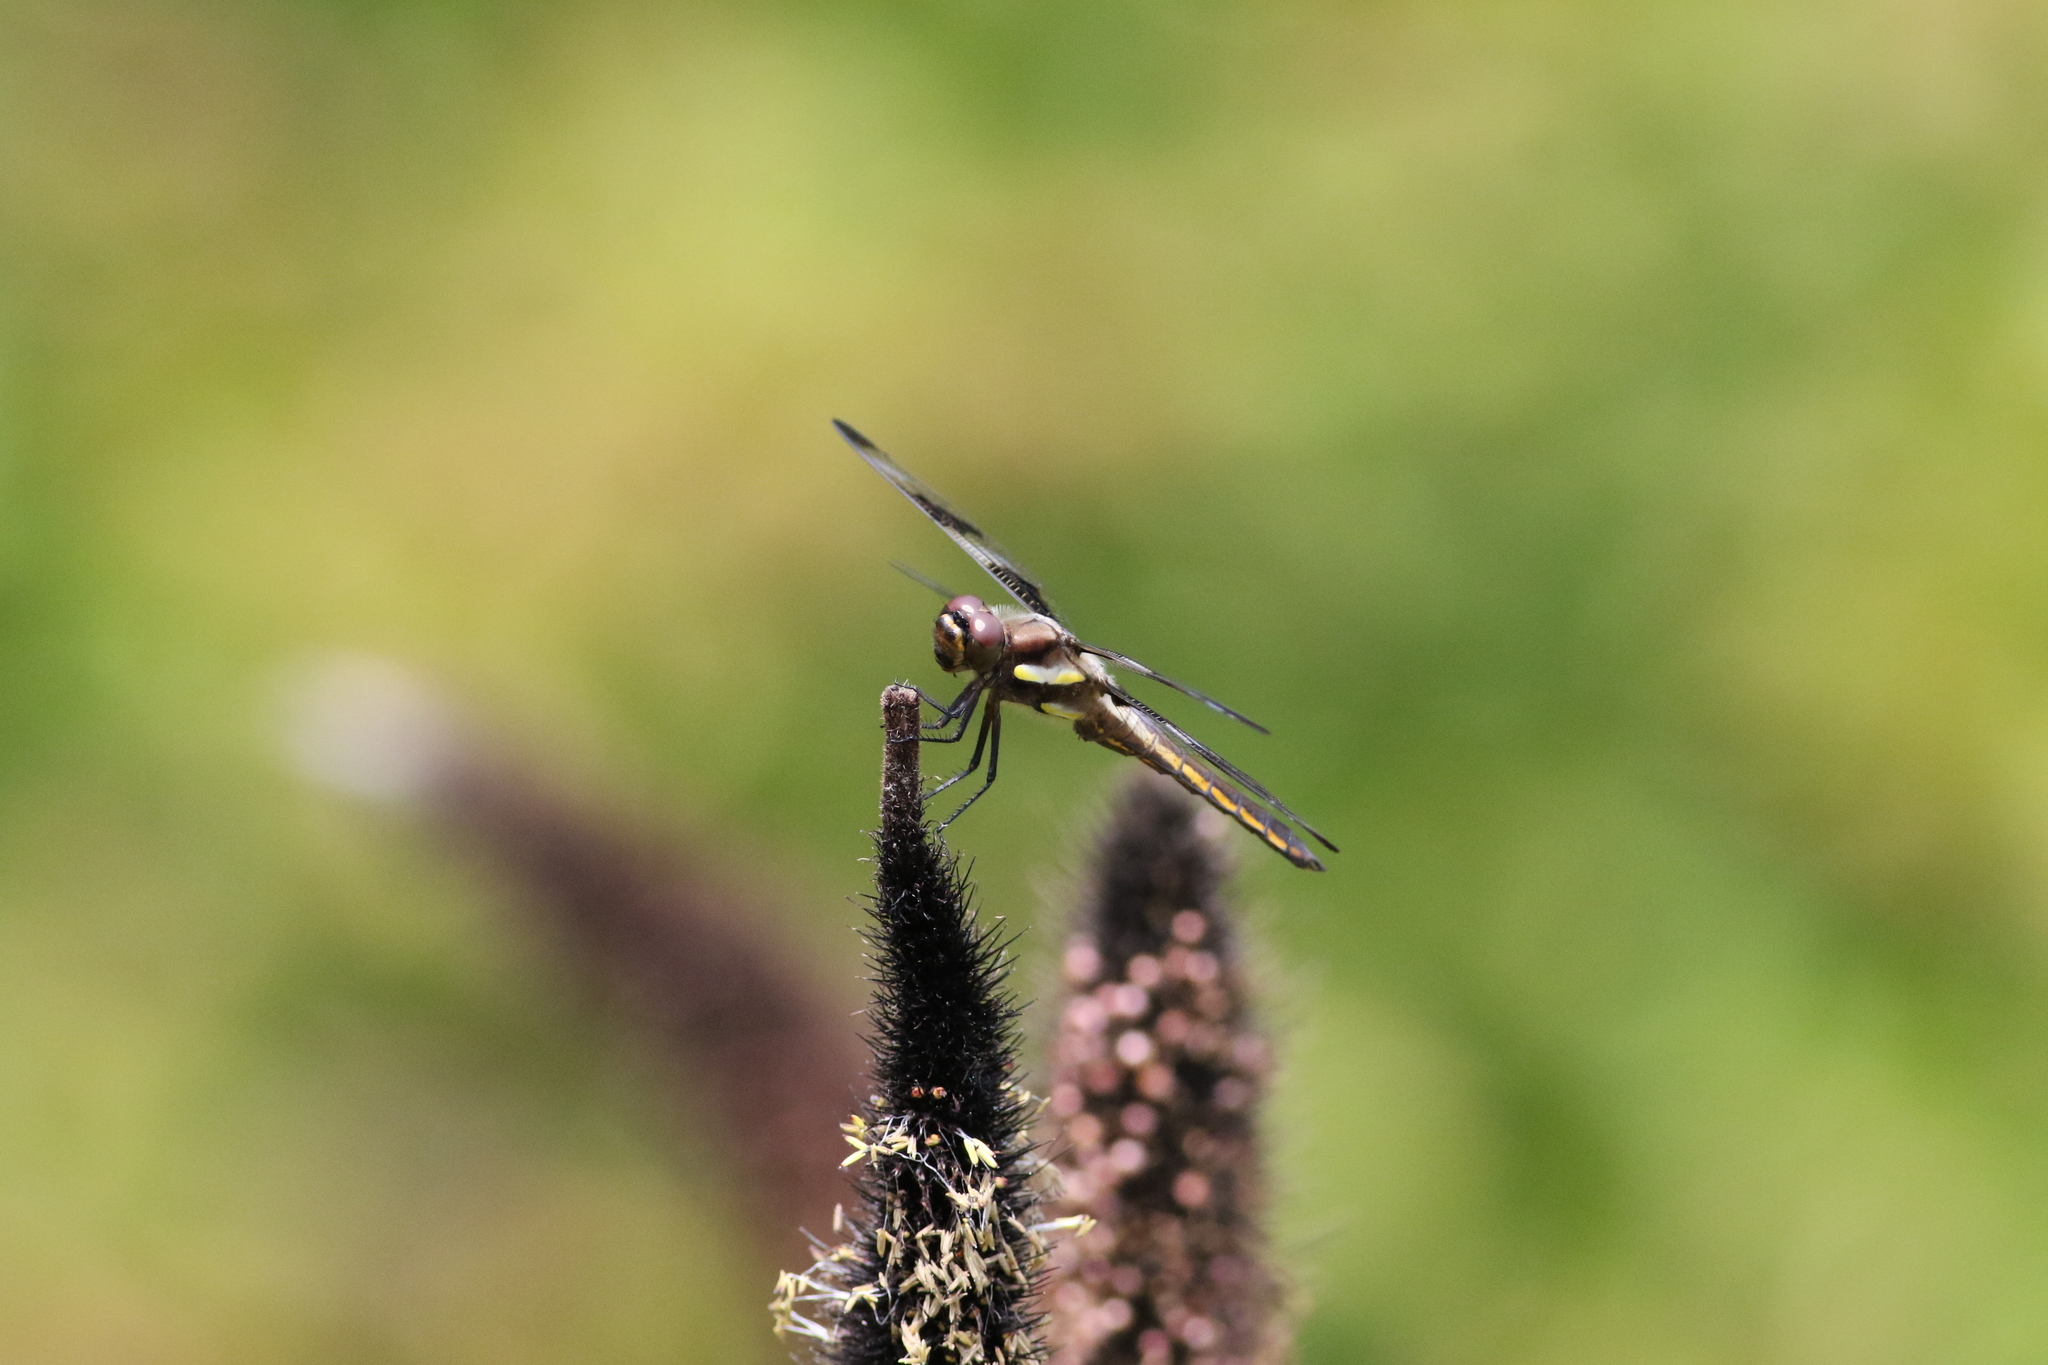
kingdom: Animalia
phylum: Arthropoda
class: Insecta
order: Odonata
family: Libellulidae
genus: Libellula
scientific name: Libellula pulchella
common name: Twelve-spotted skimmer
